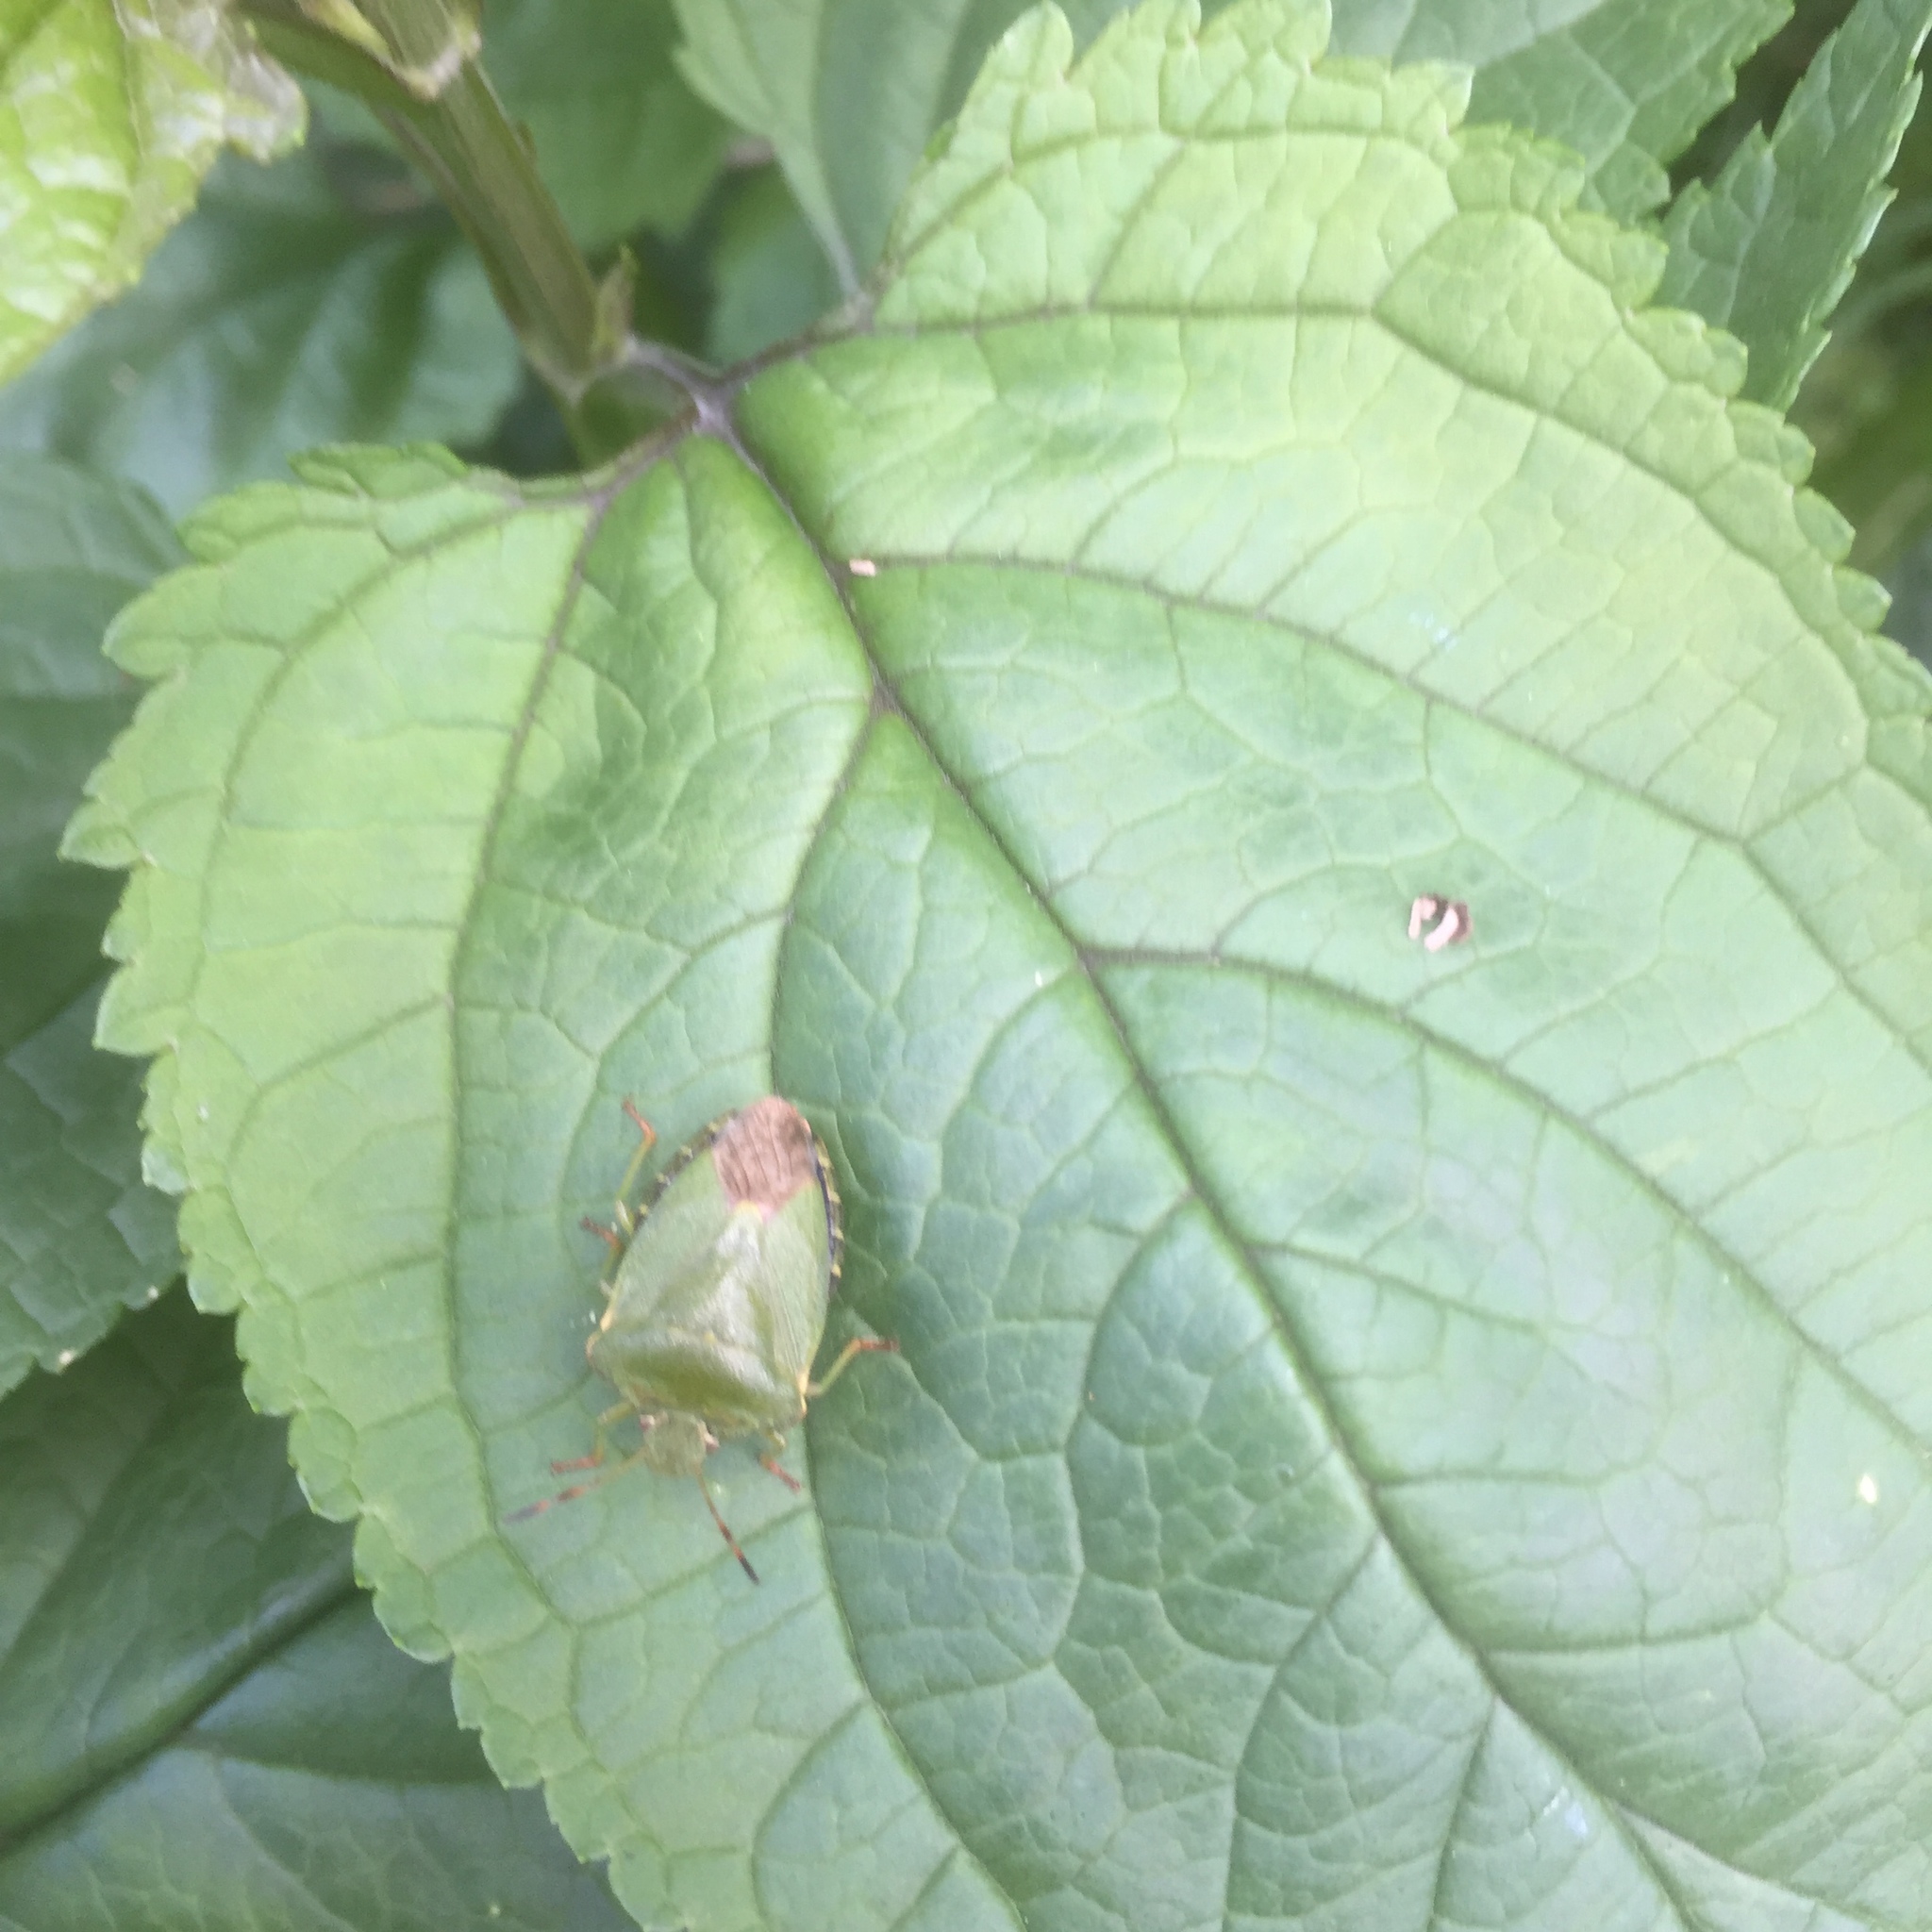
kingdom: Animalia
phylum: Arthropoda
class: Insecta
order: Hemiptera
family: Pentatomidae
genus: Palomena
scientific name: Palomena prasina
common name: Green shieldbug
